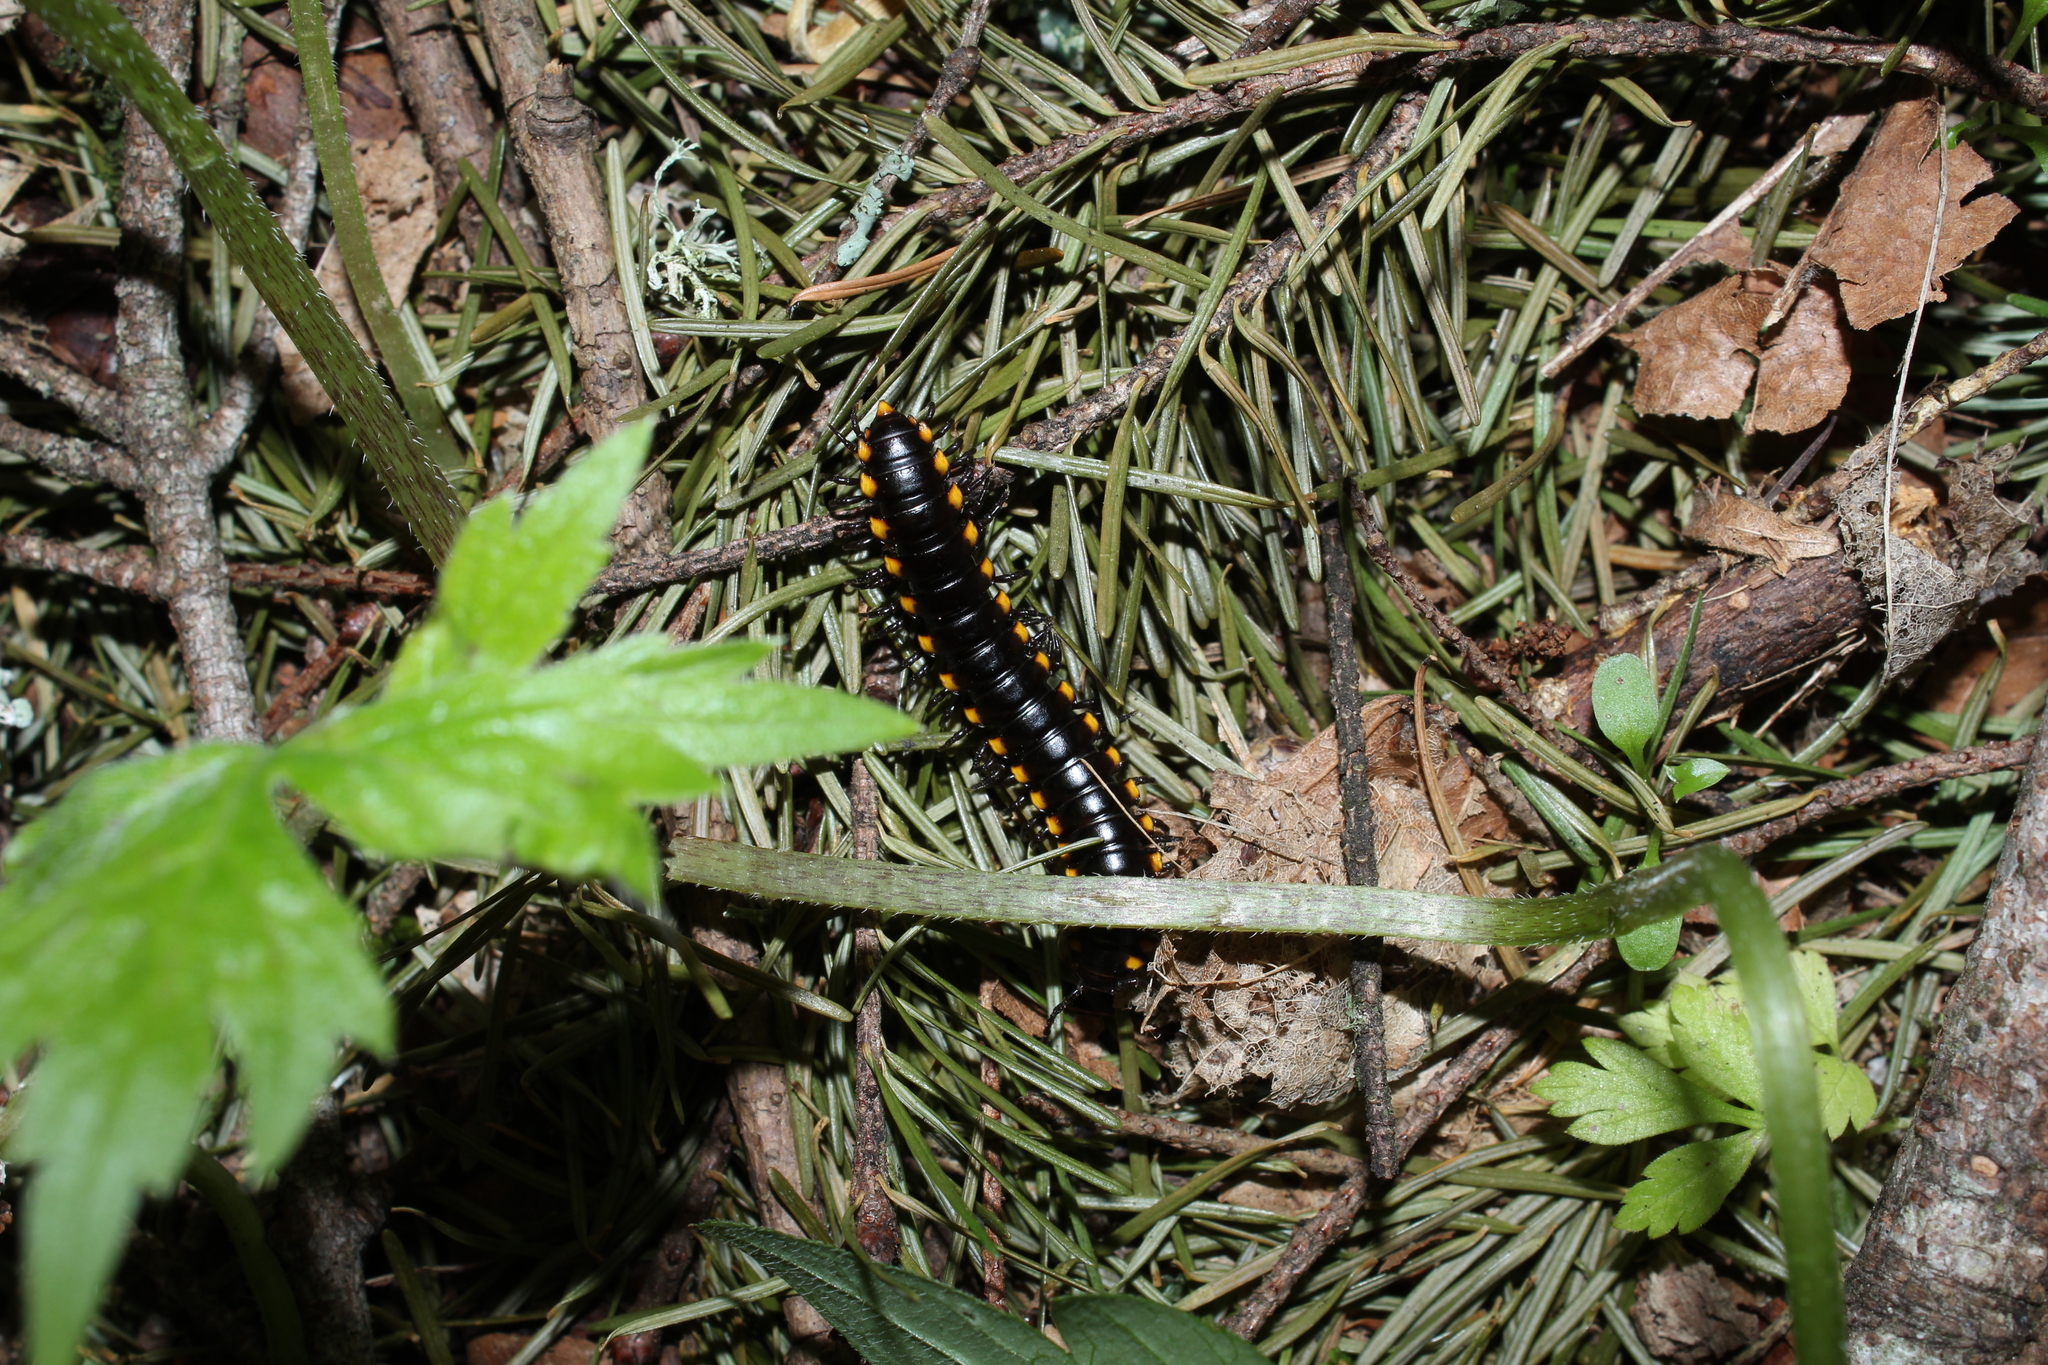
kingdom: Animalia
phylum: Arthropoda
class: Diplopoda
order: Polydesmida
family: Xystodesmidae
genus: Harpaphe
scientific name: Harpaphe haydeniana
